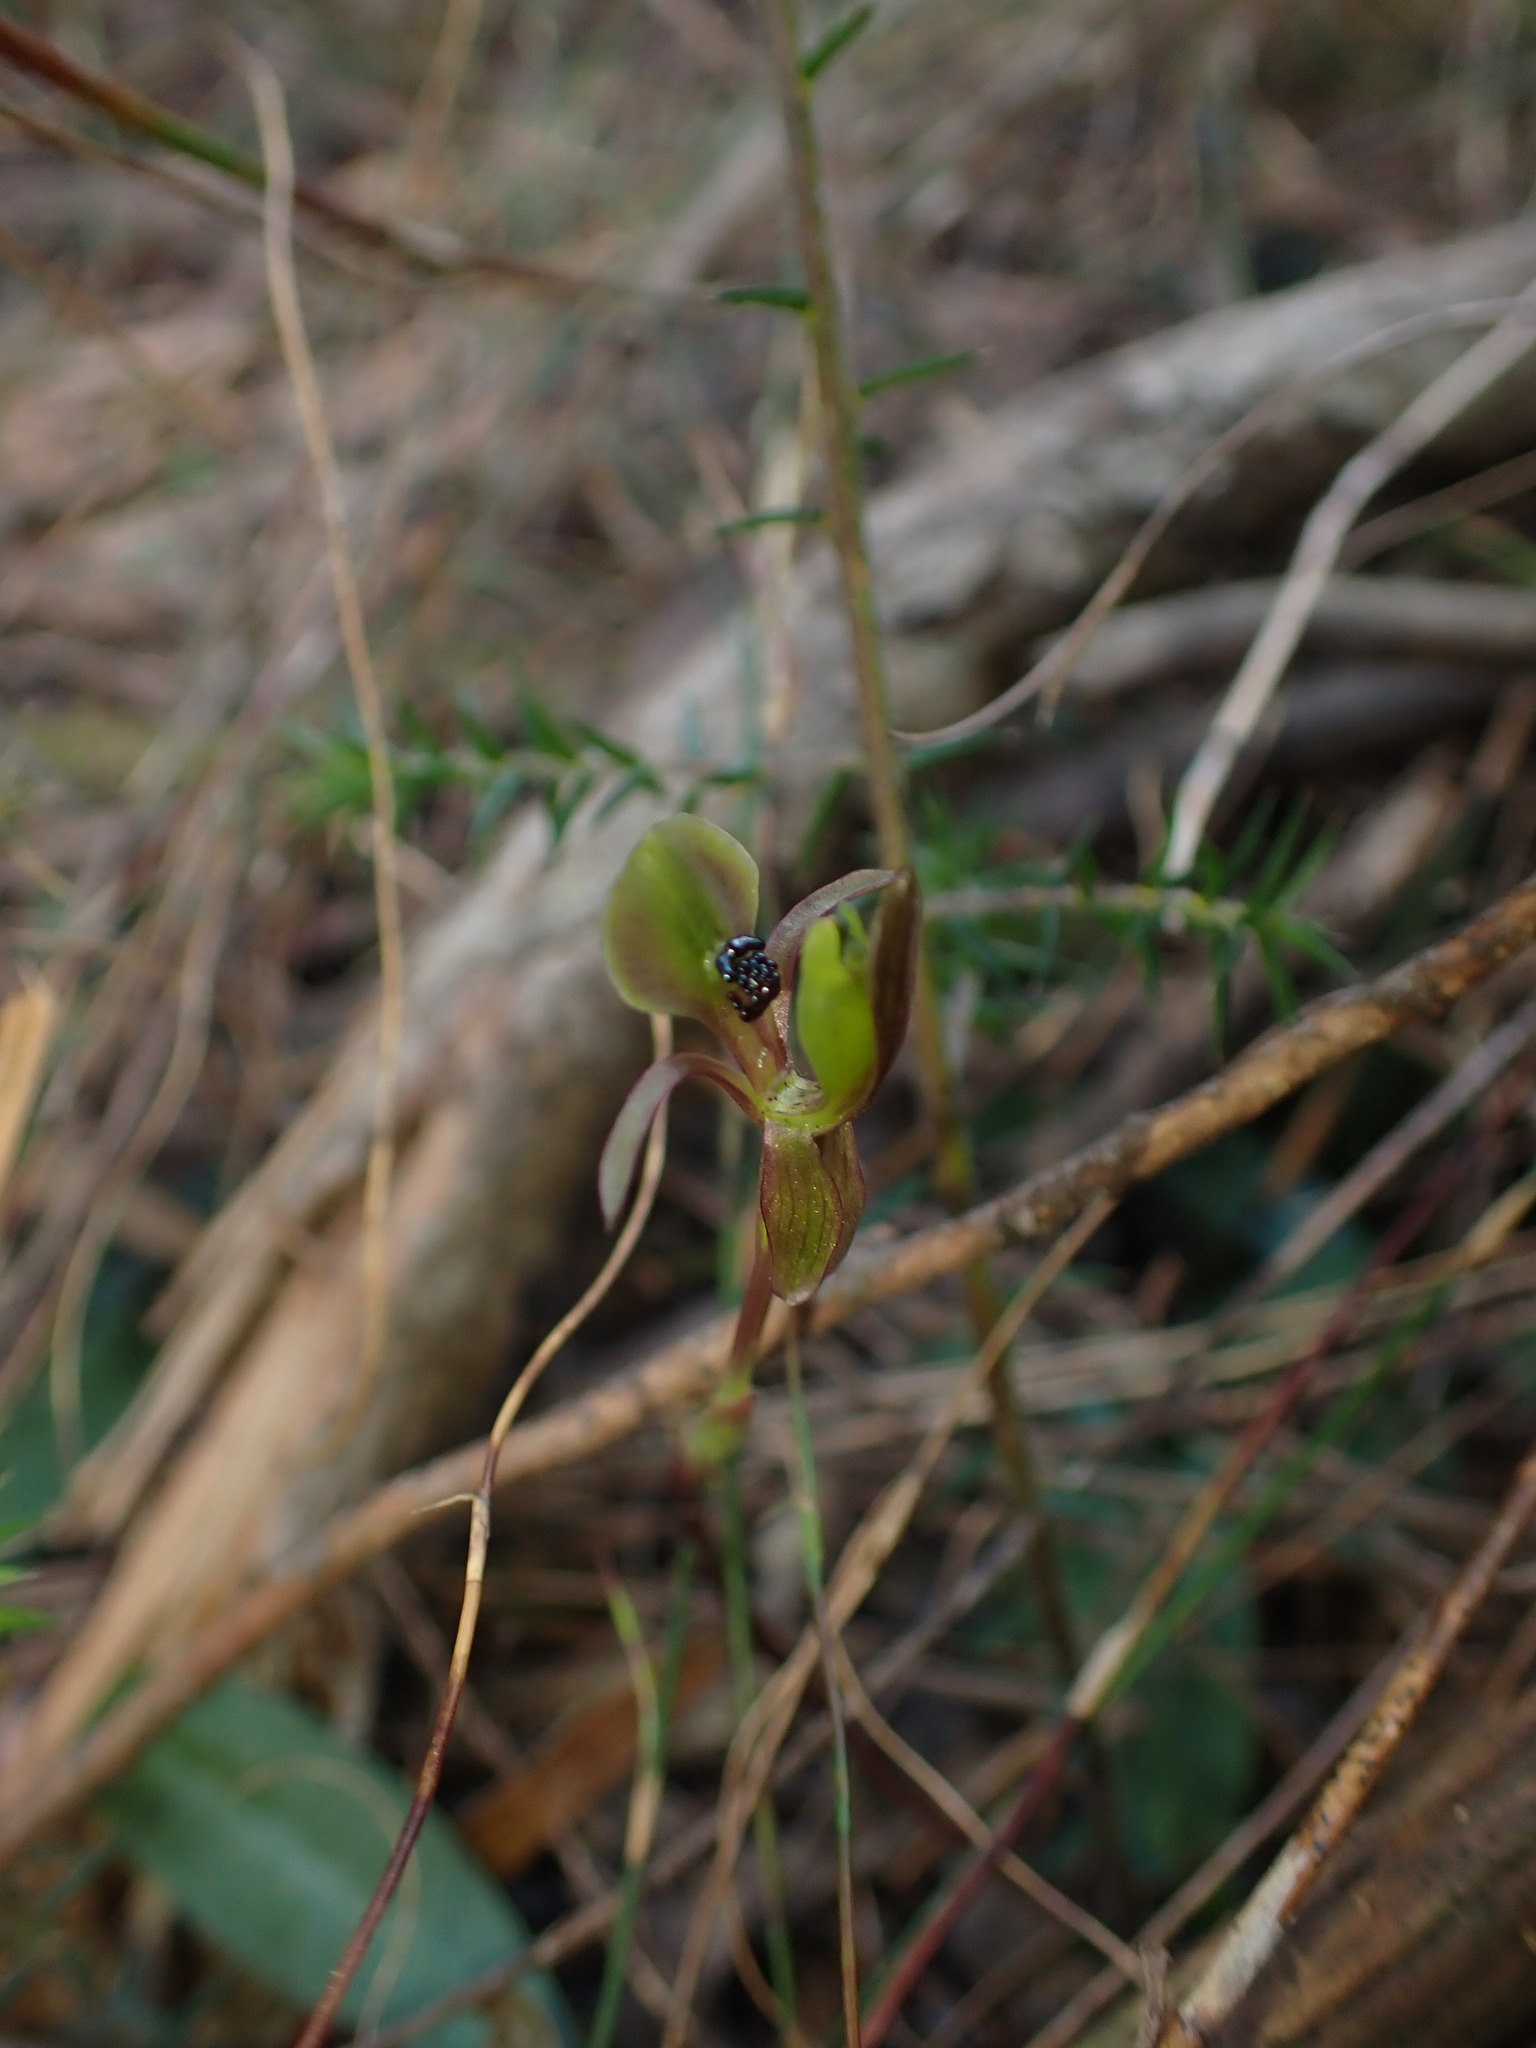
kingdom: Plantae
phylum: Tracheophyta
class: Liliopsida
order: Asparagales
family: Orchidaceae
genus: Chiloglottis
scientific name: Chiloglottis trapeziformis
